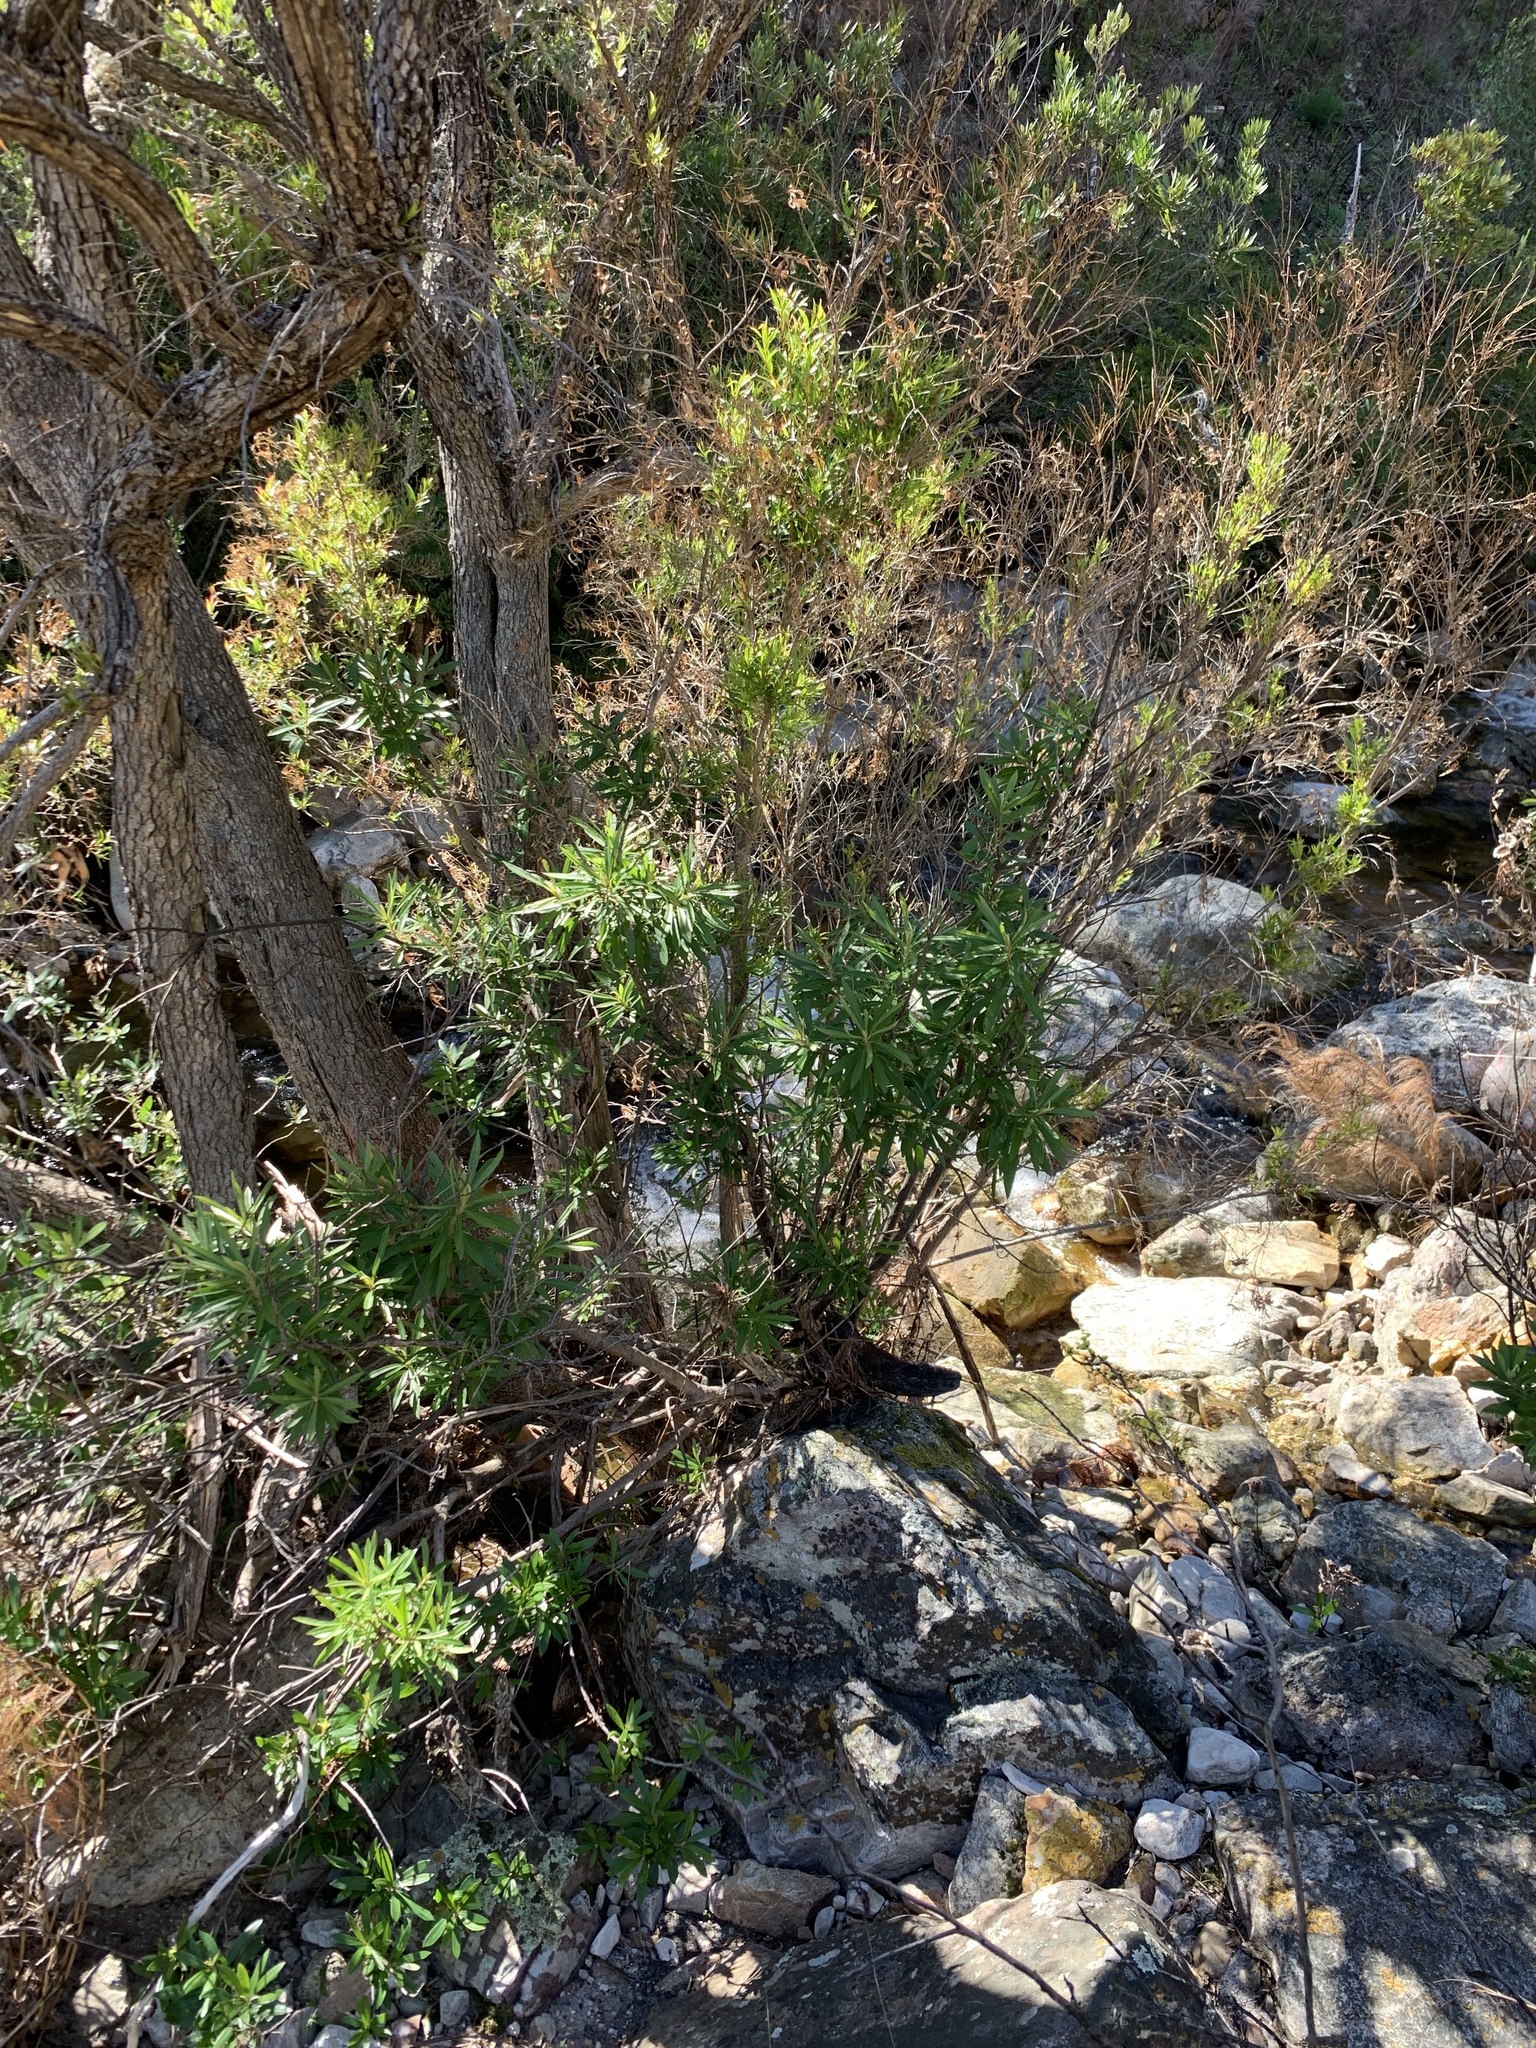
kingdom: Plantae
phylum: Tracheophyta
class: Magnoliopsida
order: Asterales
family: Asteraceae
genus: Brachylaena
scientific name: Brachylaena neriifolia
